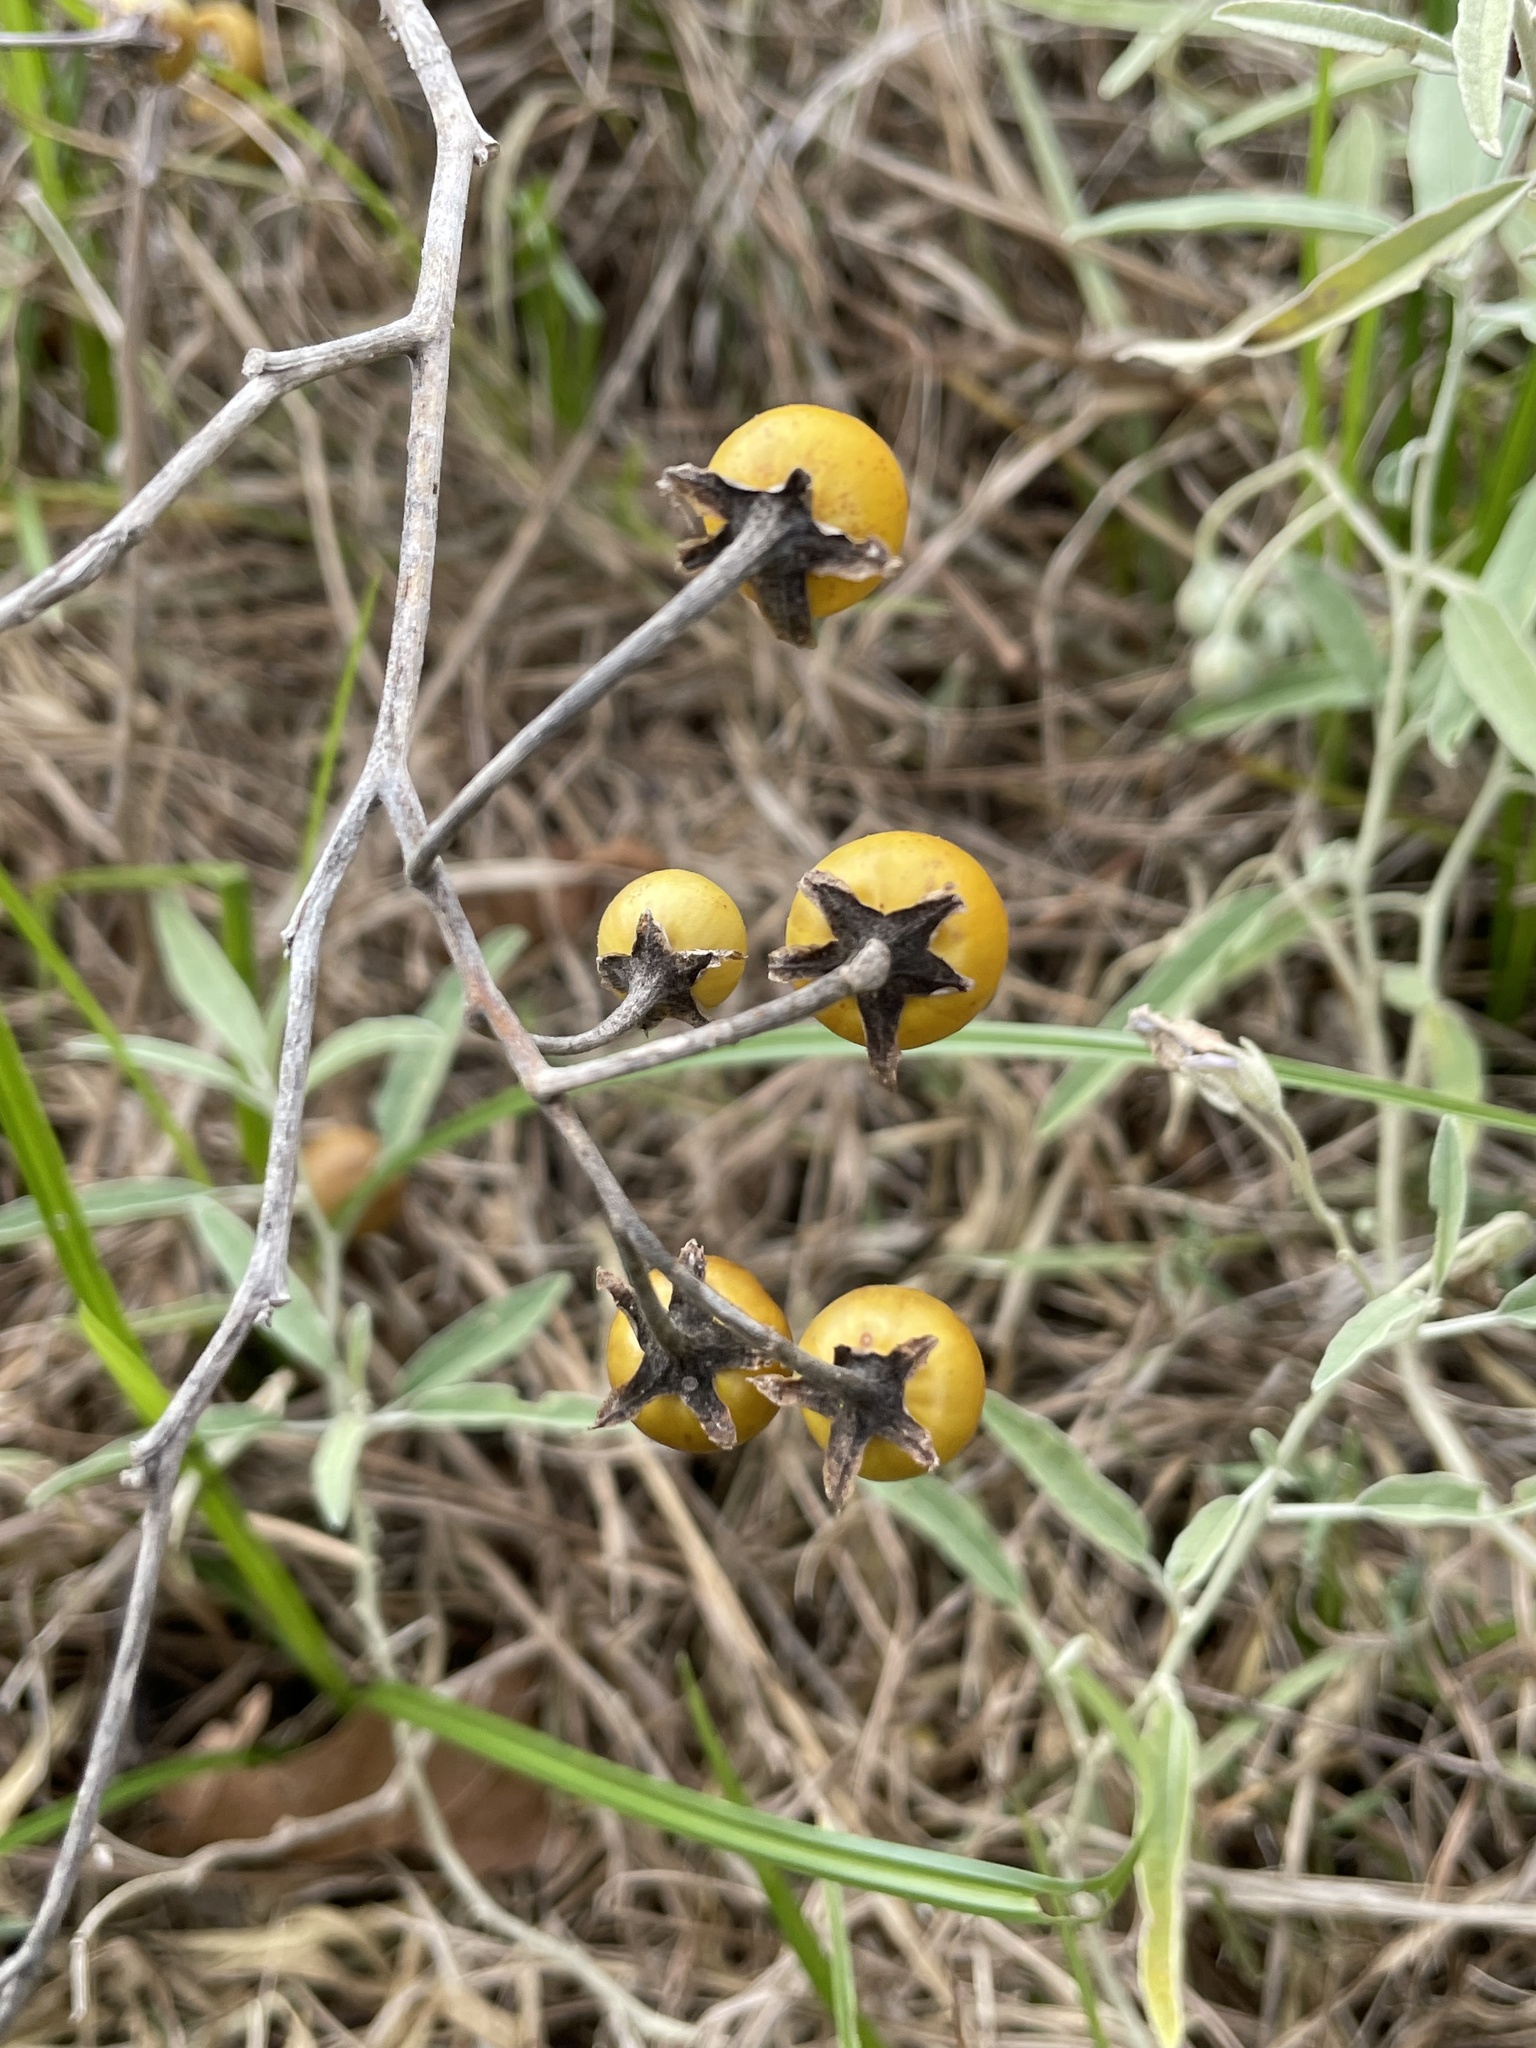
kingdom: Plantae
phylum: Tracheophyta
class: Magnoliopsida
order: Solanales
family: Solanaceae
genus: Solanum
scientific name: Solanum elaeagnifolium
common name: Silverleaf nightshade
